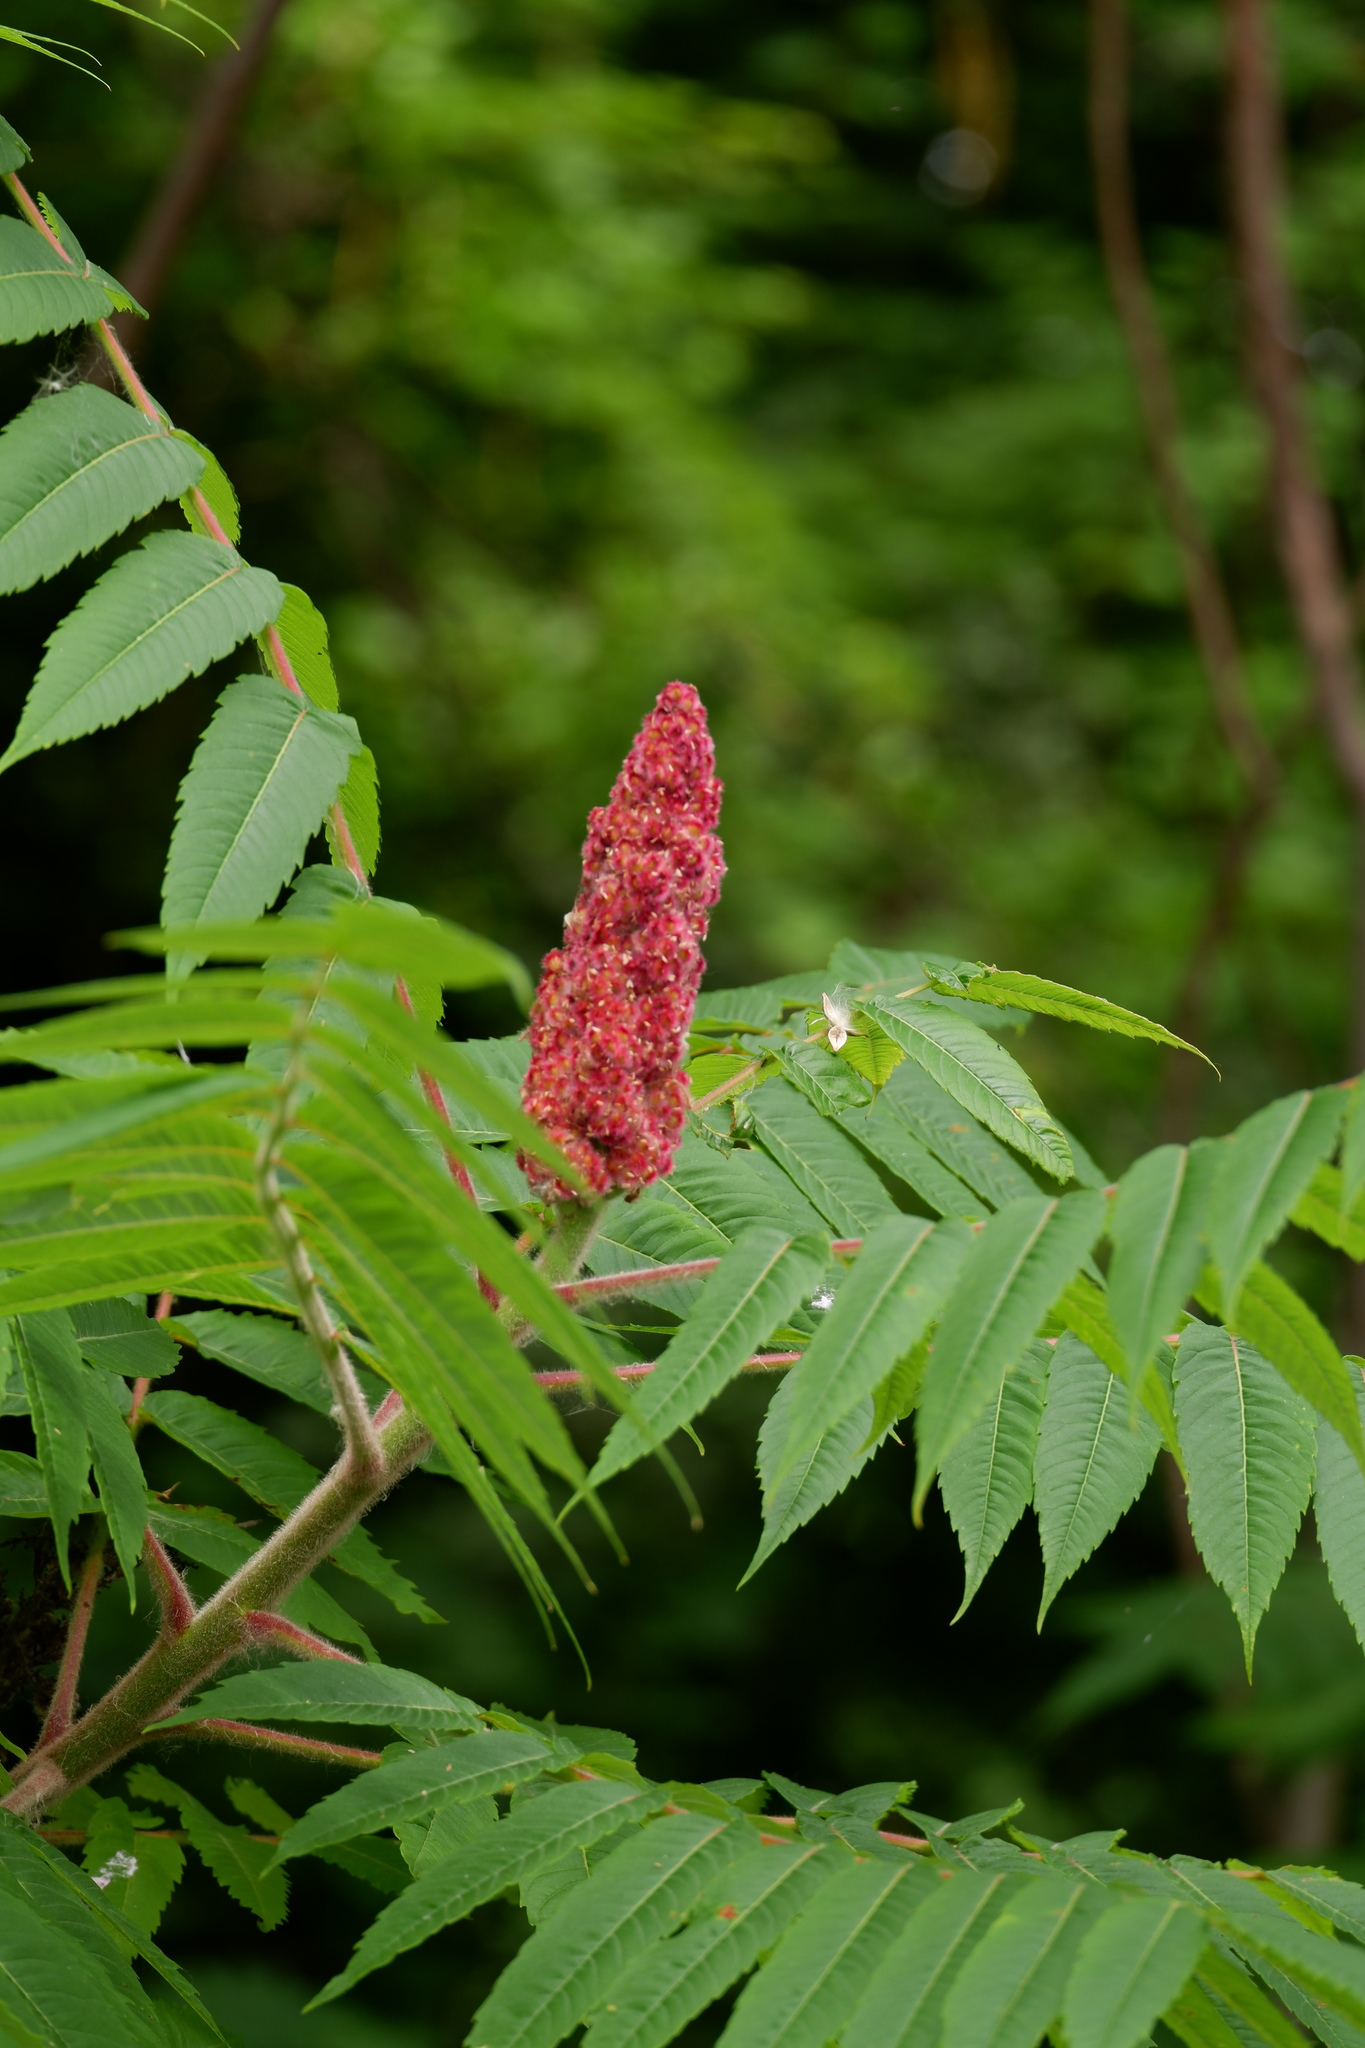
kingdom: Plantae
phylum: Tracheophyta
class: Magnoliopsida
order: Sapindales
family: Anacardiaceae
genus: Rhus
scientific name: Rhus typhina
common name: Staghorn sumac
